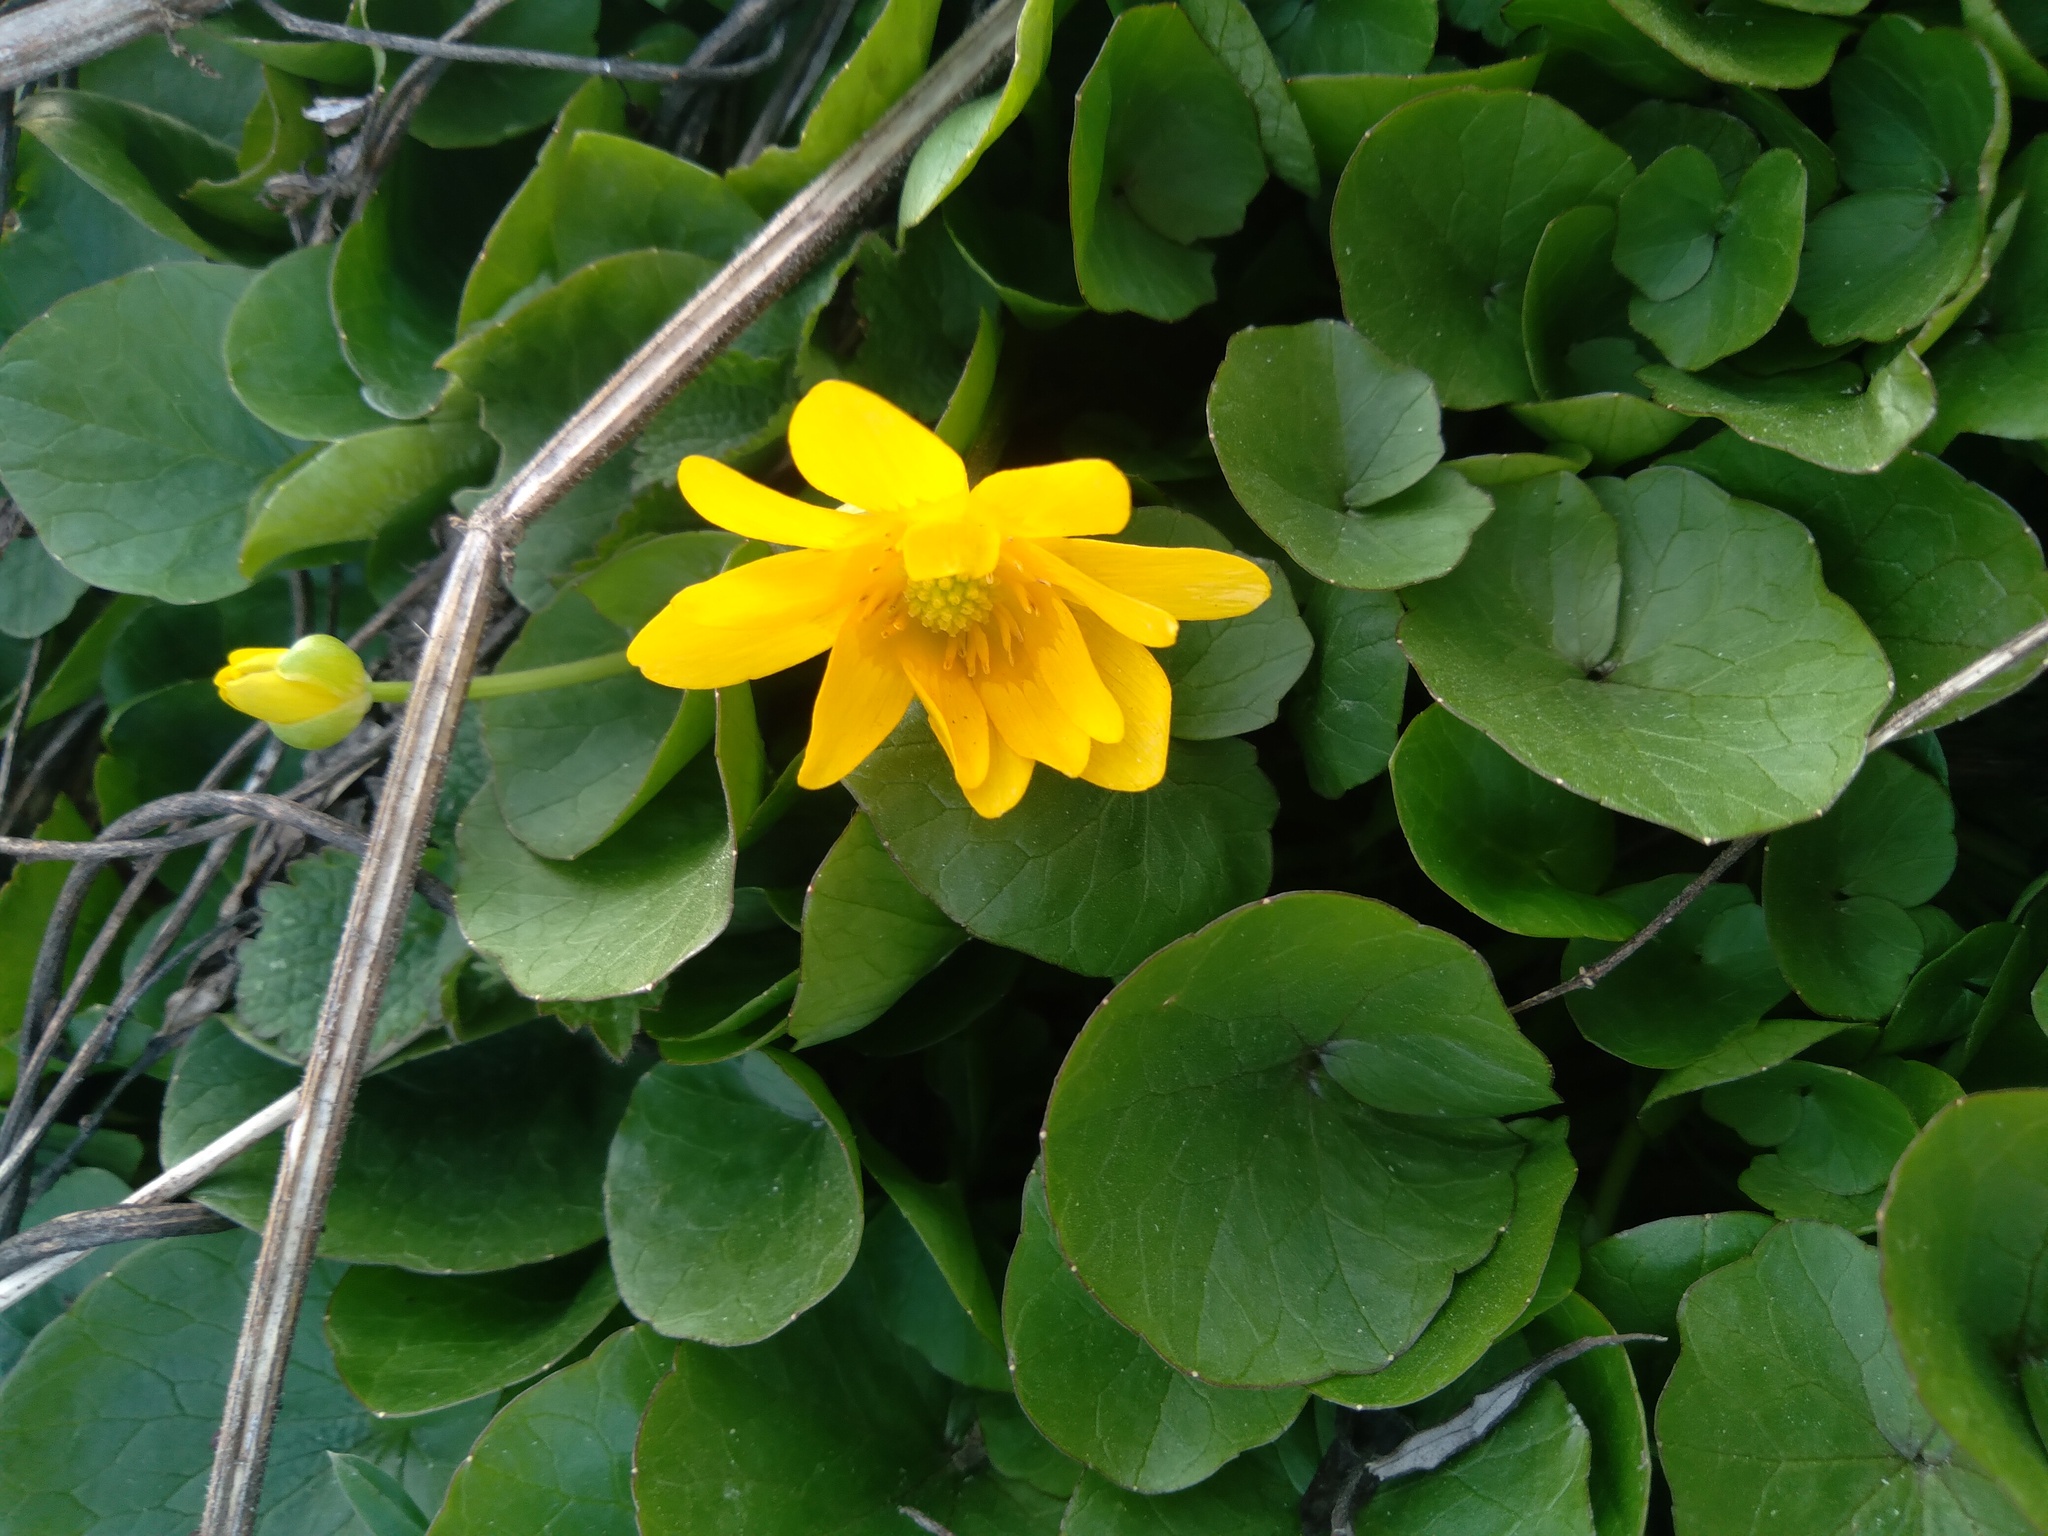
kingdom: Plantae
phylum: Tracheophyta
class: Magnoliopsida
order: Ranunculales
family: Ranunculaceae
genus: Ficaria
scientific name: Ficaria verna
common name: Lesser celandine
